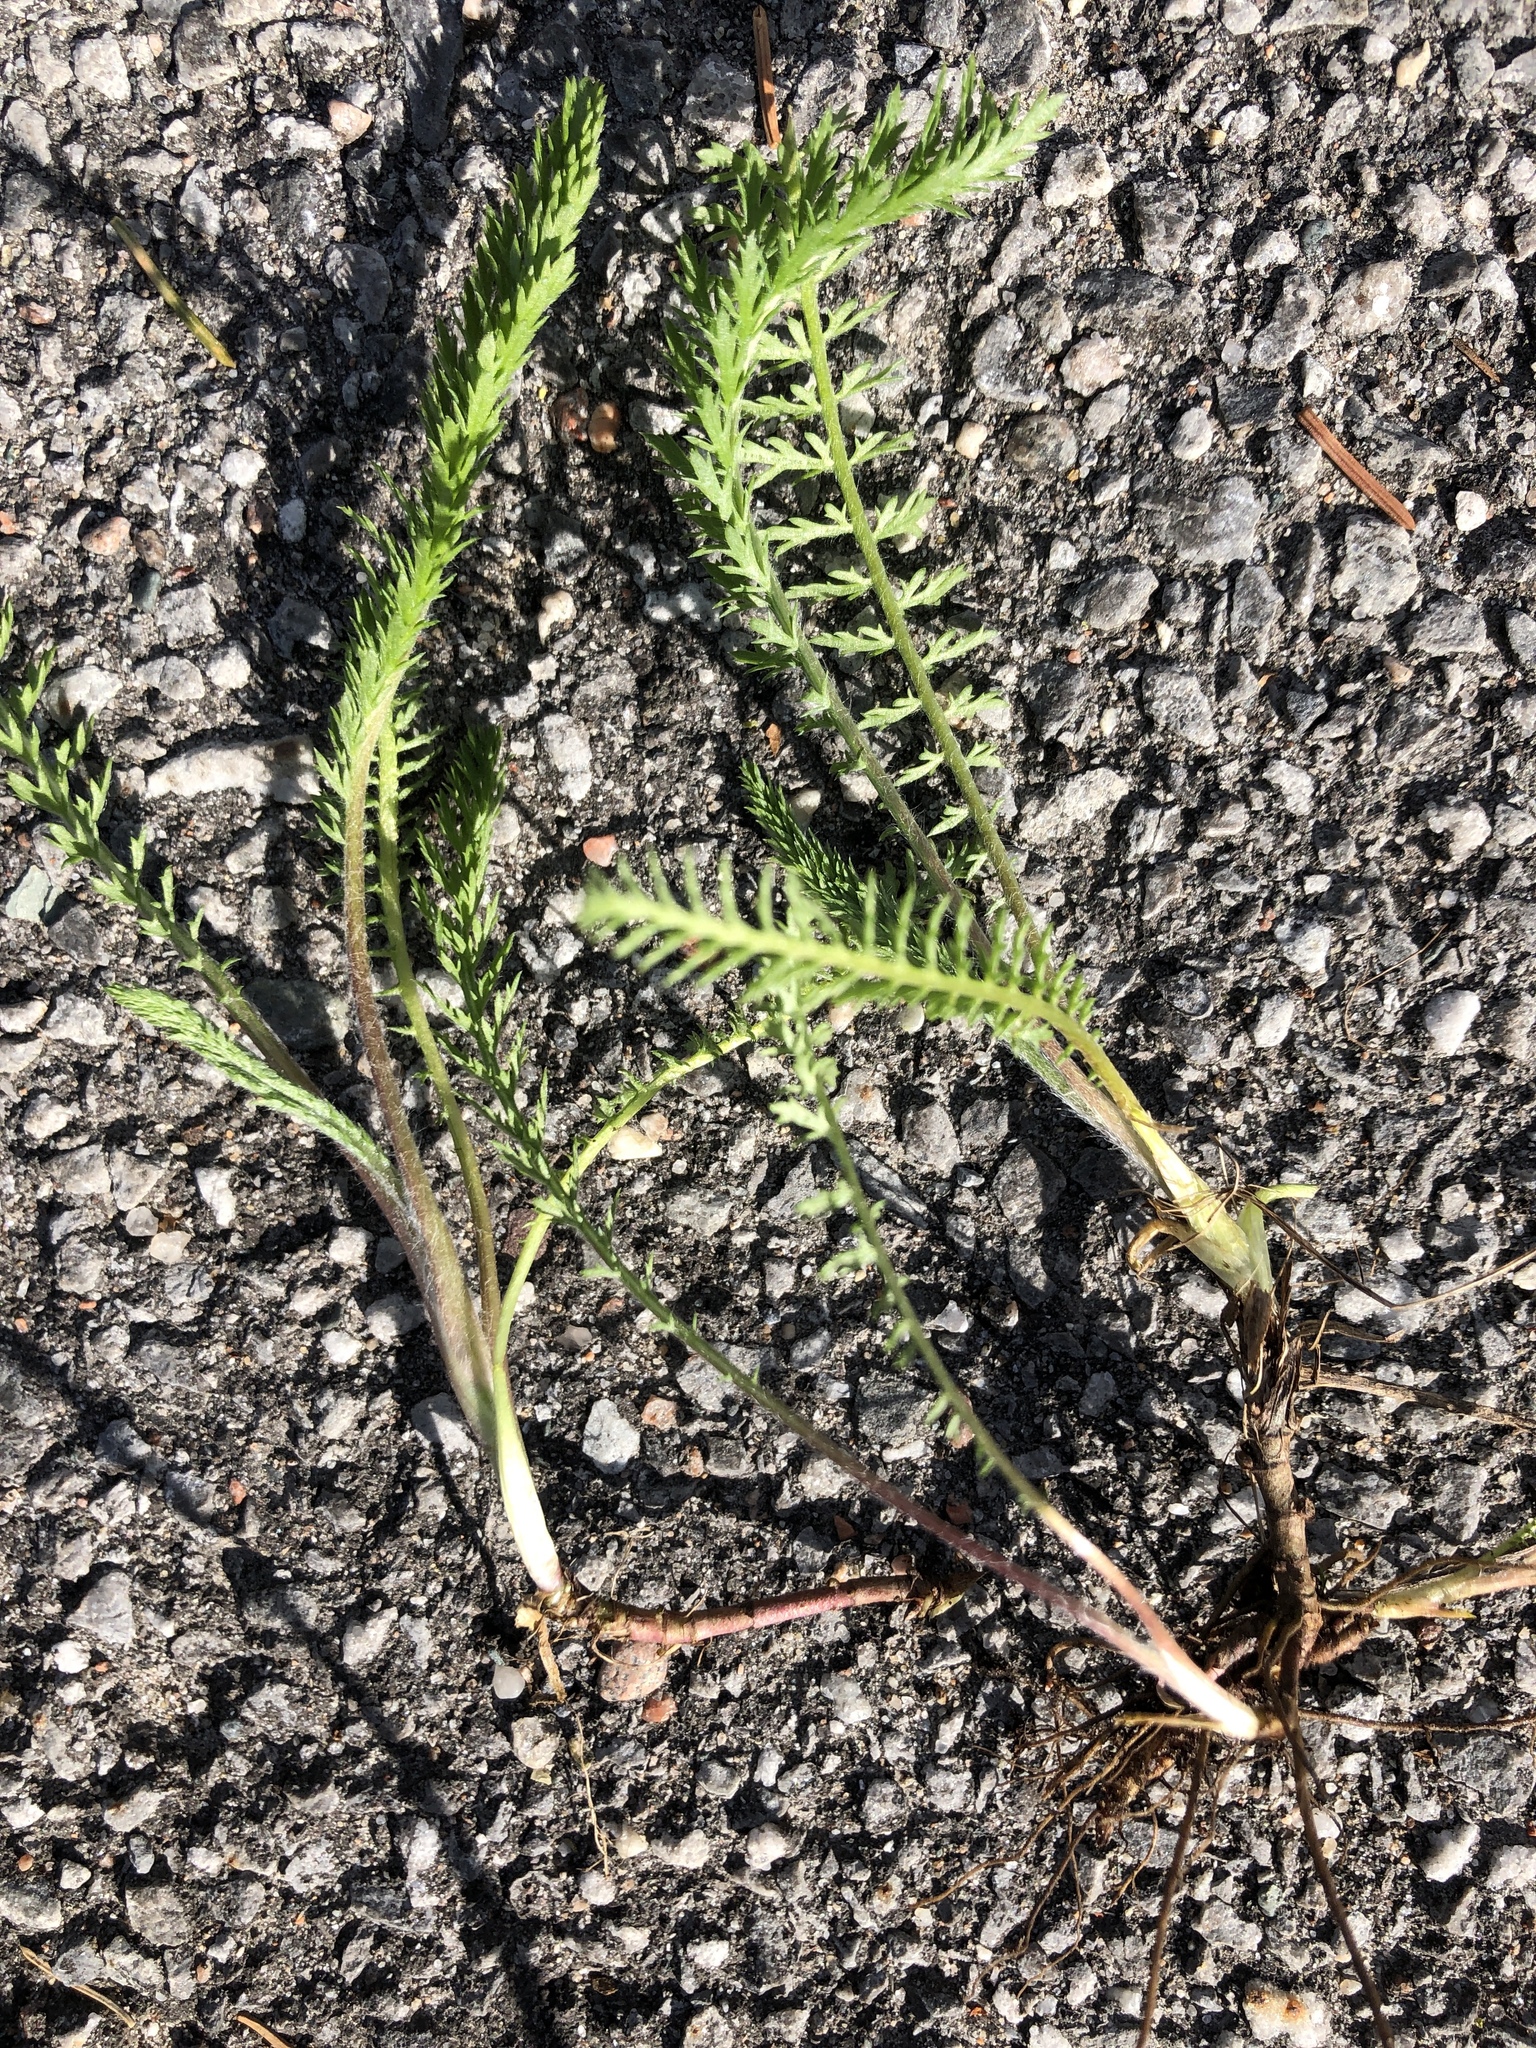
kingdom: Plantae
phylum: Tracheophyta
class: Magnoliopsida
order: Asterales
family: Asteraceae
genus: Achillea
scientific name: Achillea millefolium
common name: Yarrow
